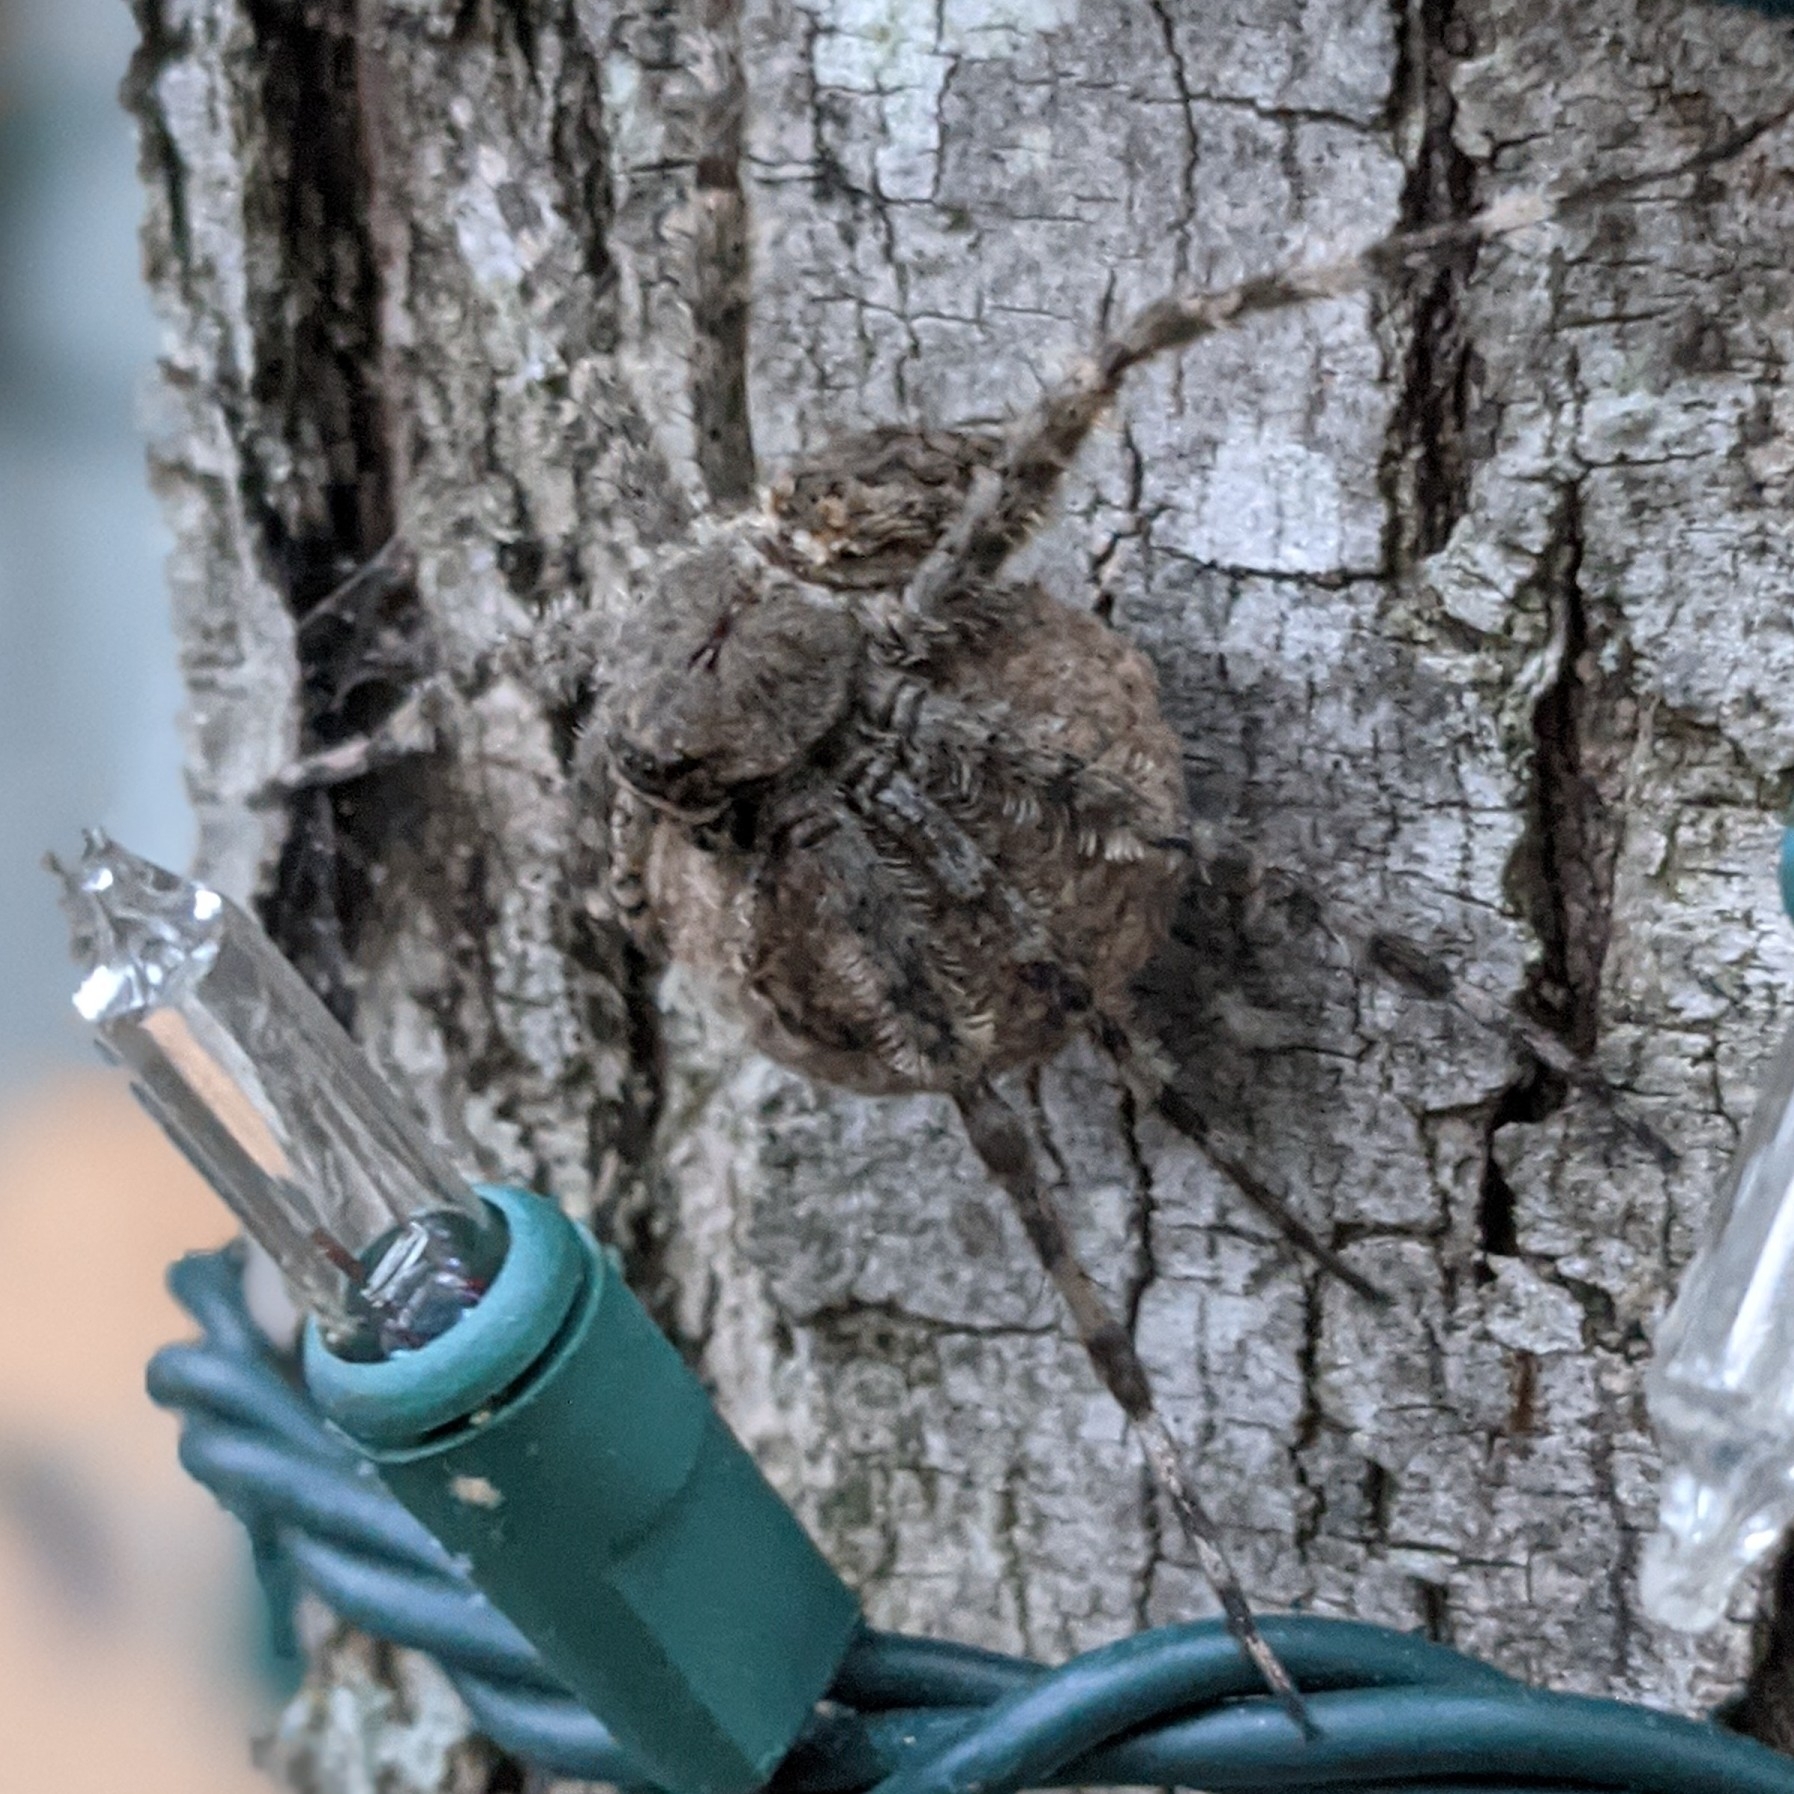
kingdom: Animalia
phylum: Arthropoda
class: Arachnida
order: Araneae
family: Pisauridae
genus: Dolomedes
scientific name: Dolomedes albineus
